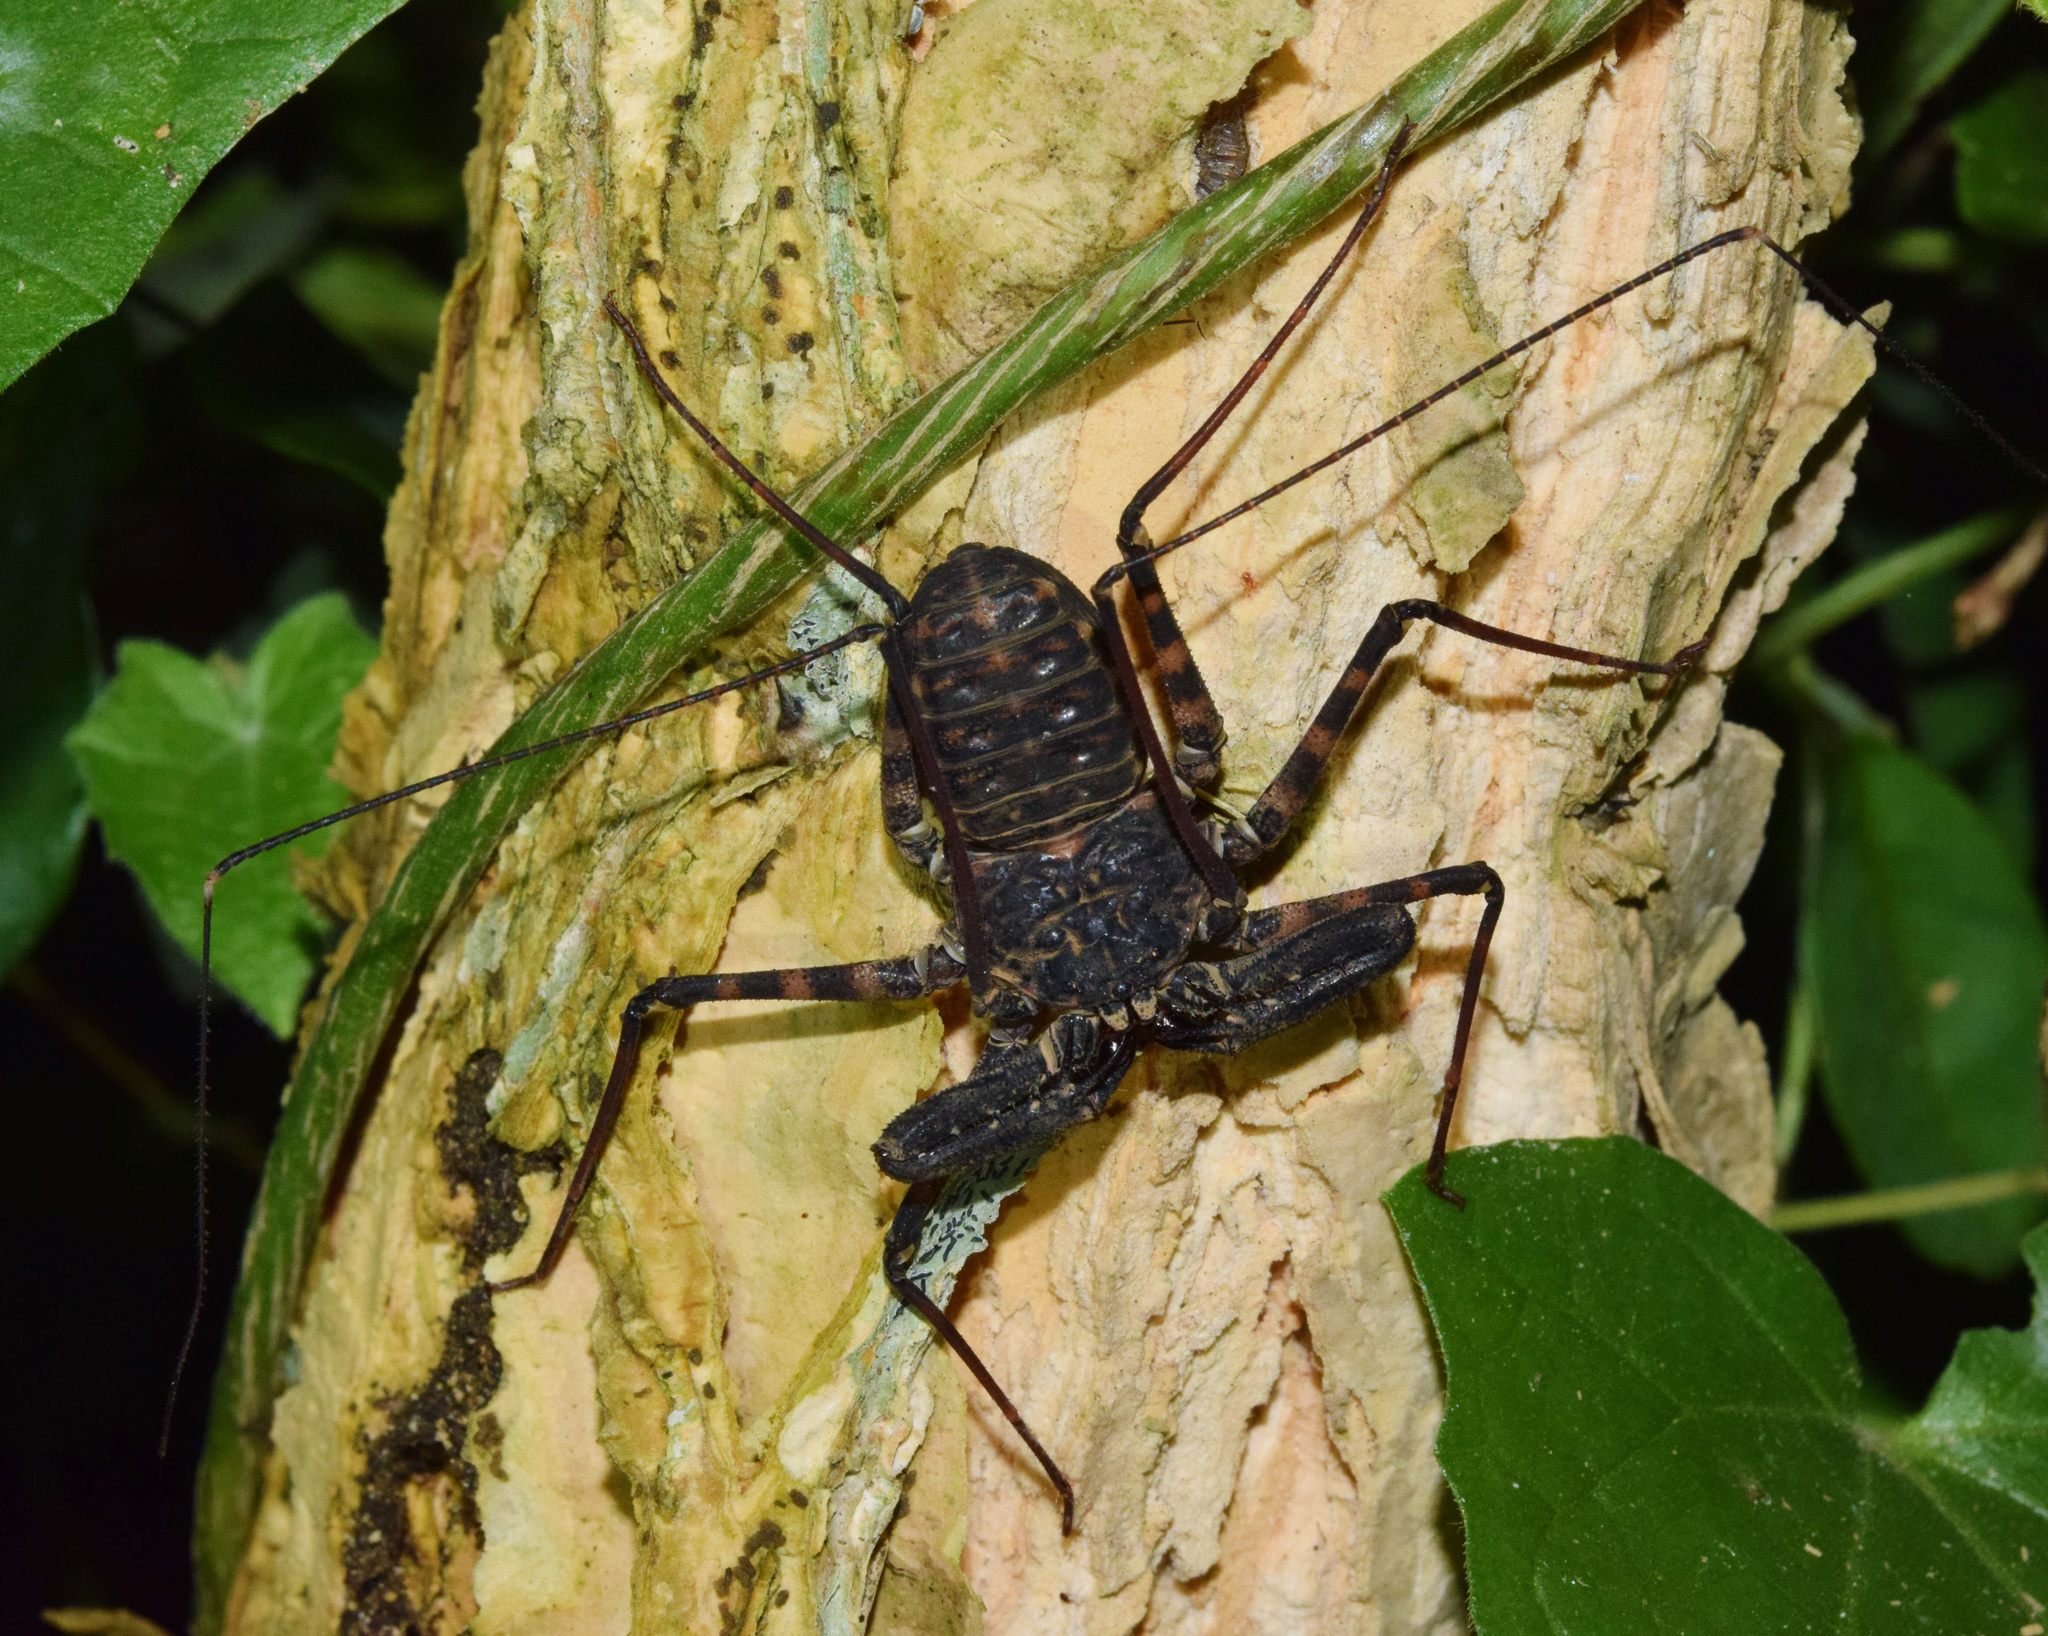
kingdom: Animalia
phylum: Arthropoda
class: Arachnida
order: Amblypygi
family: Phrynichidae
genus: Damon
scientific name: Damon annulatipes
